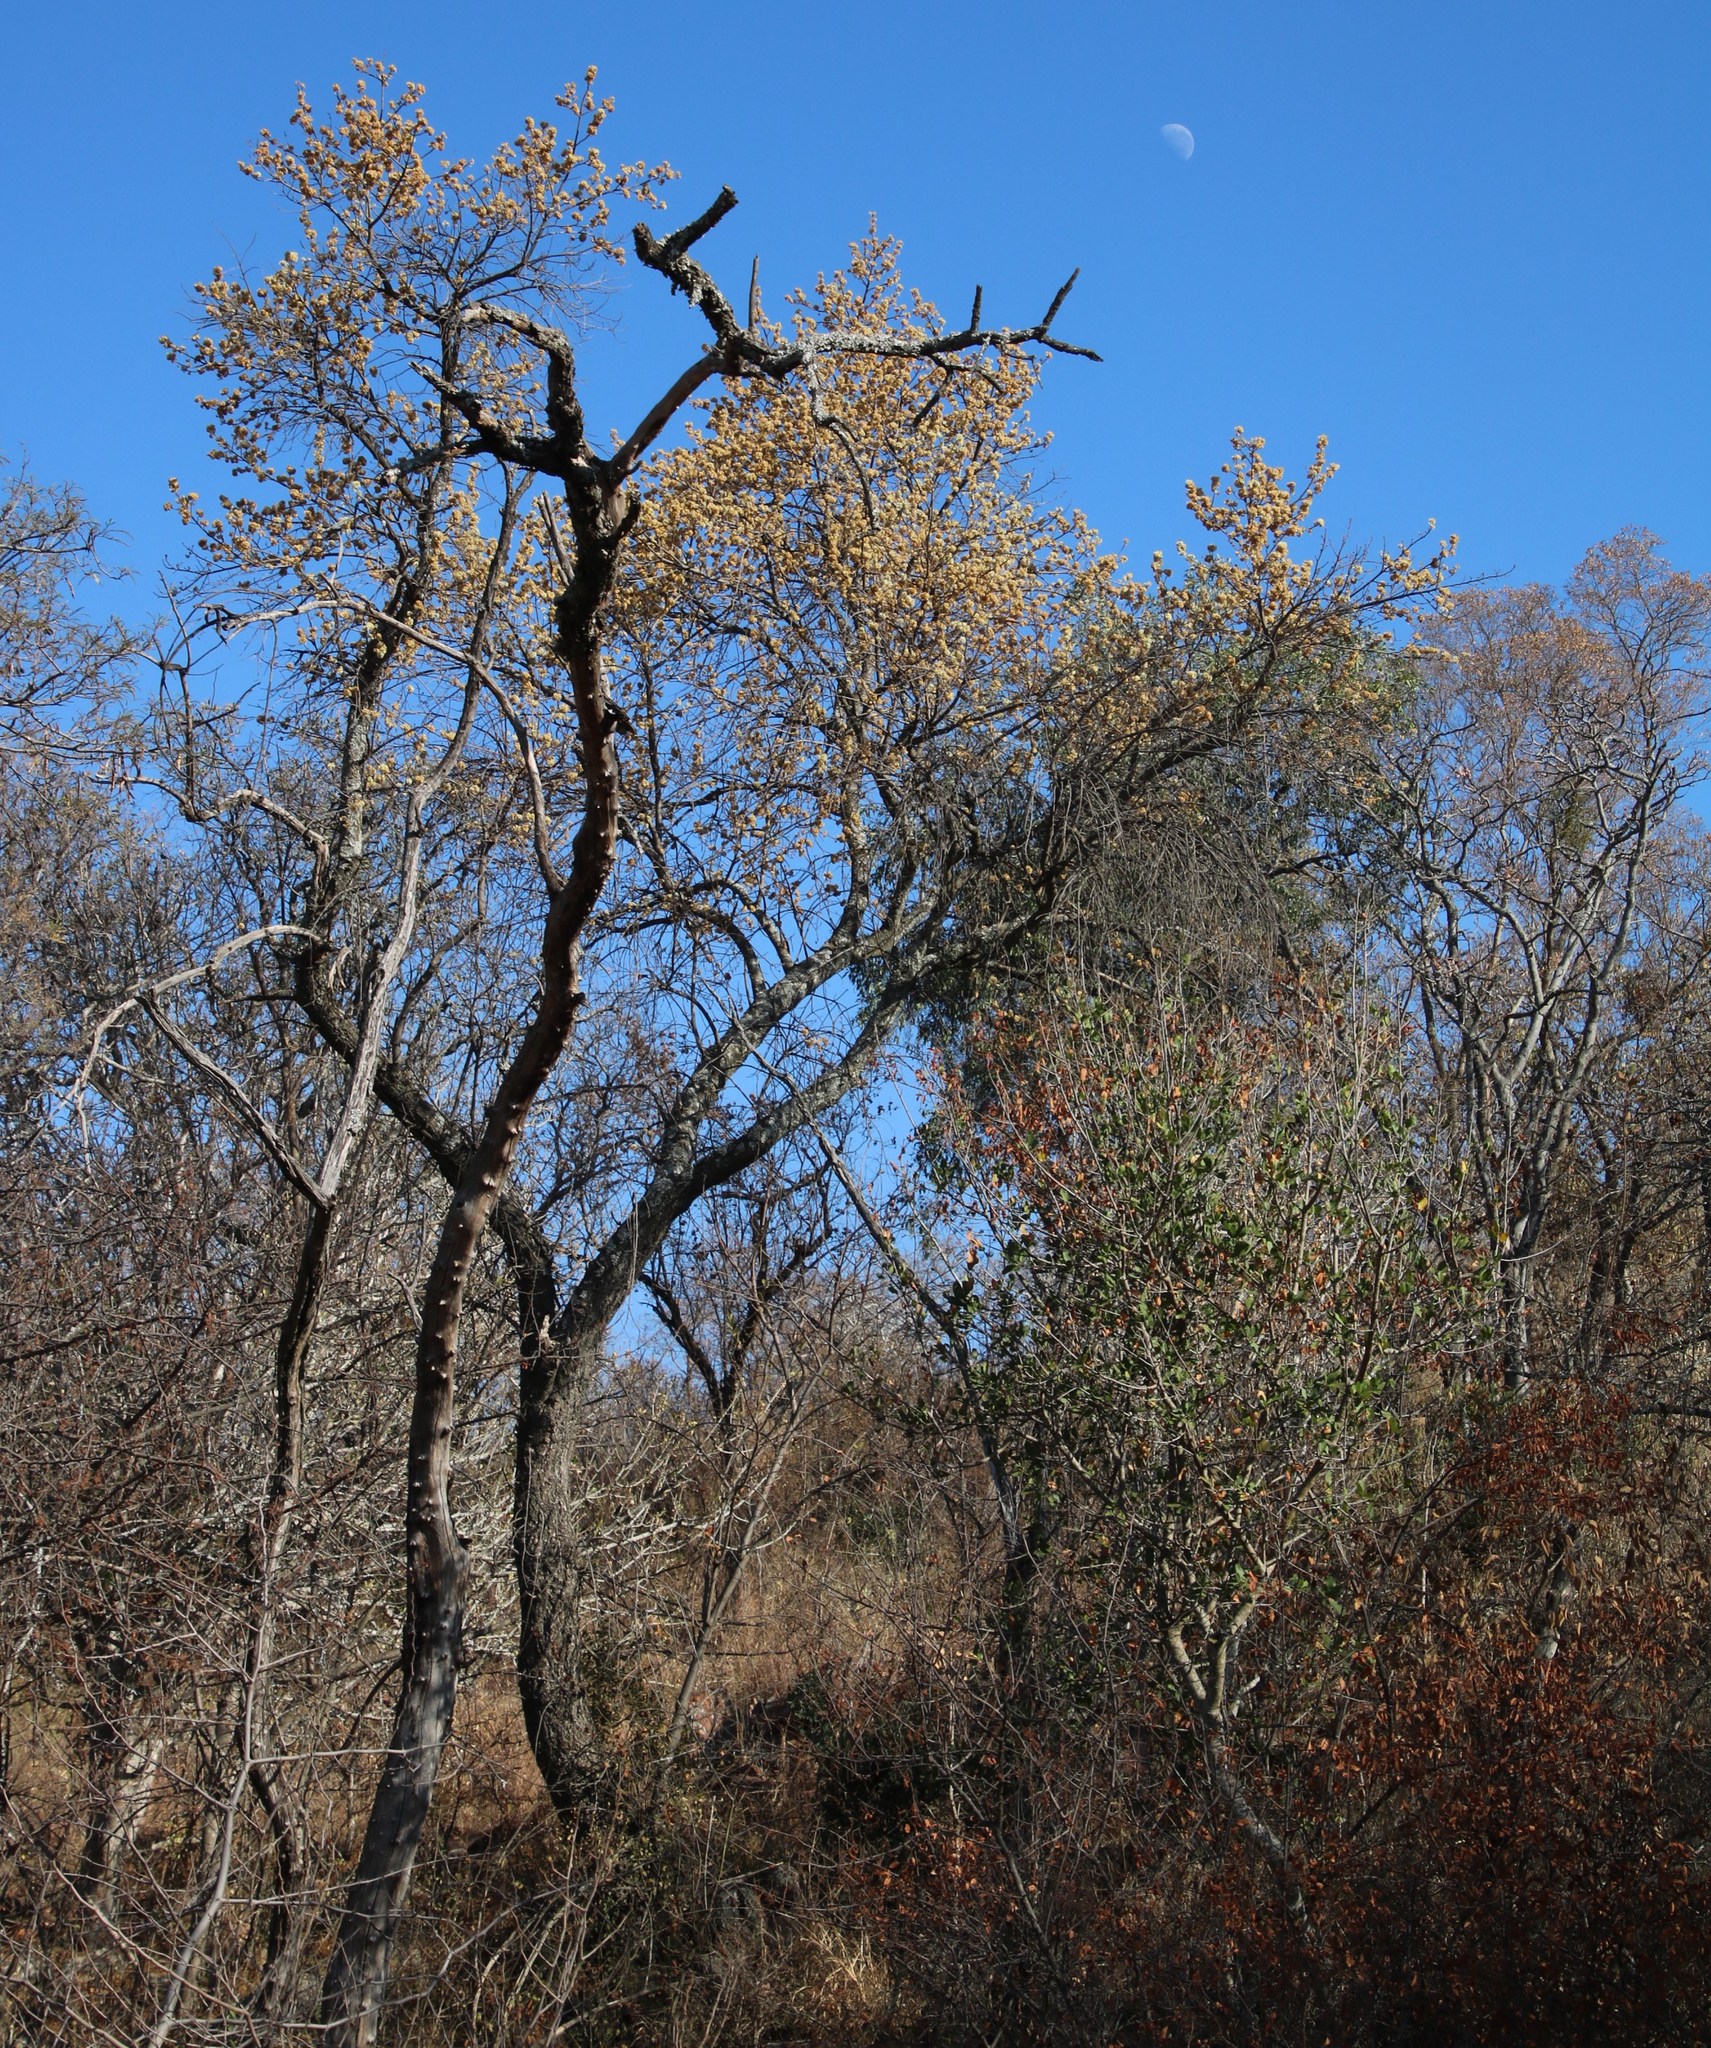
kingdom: Plantae
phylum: Tracheophyta
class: Magnoliopsida
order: Malvales
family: Malvaceae
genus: Dombeya
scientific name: Dombeya rotundifolia
